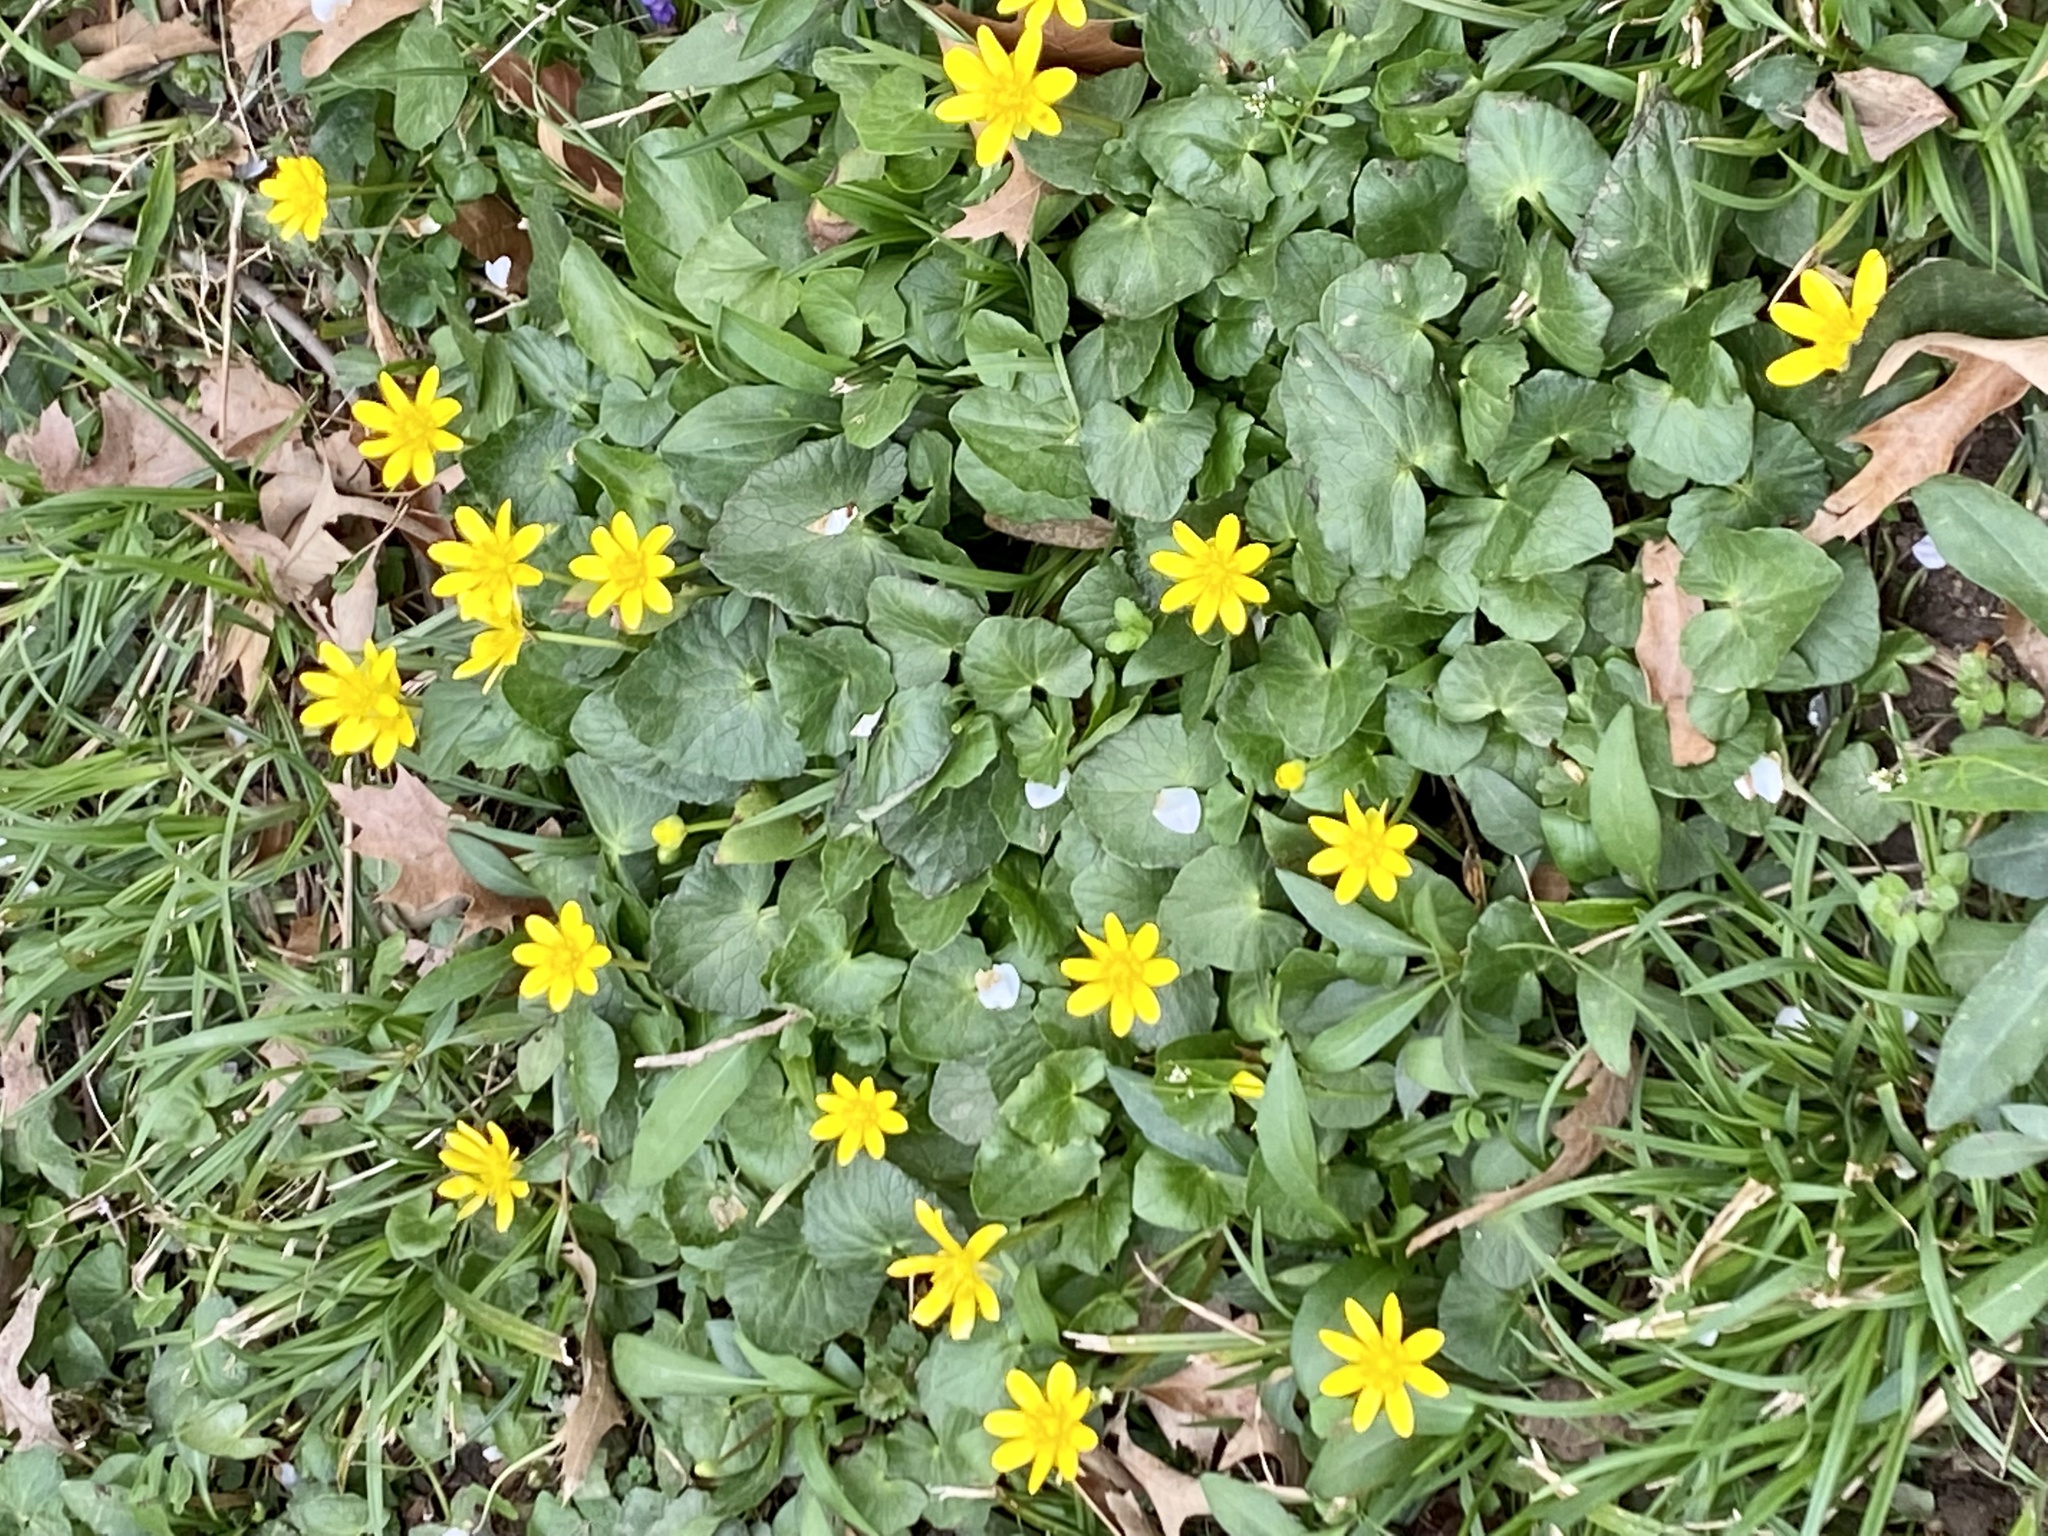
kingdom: Plantae
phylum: Tracheophyta
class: Magnoliopsida
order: Ranunculales
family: Ranunculaceae
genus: Ficaria
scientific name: Ficaria verna
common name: Lesser celandine
